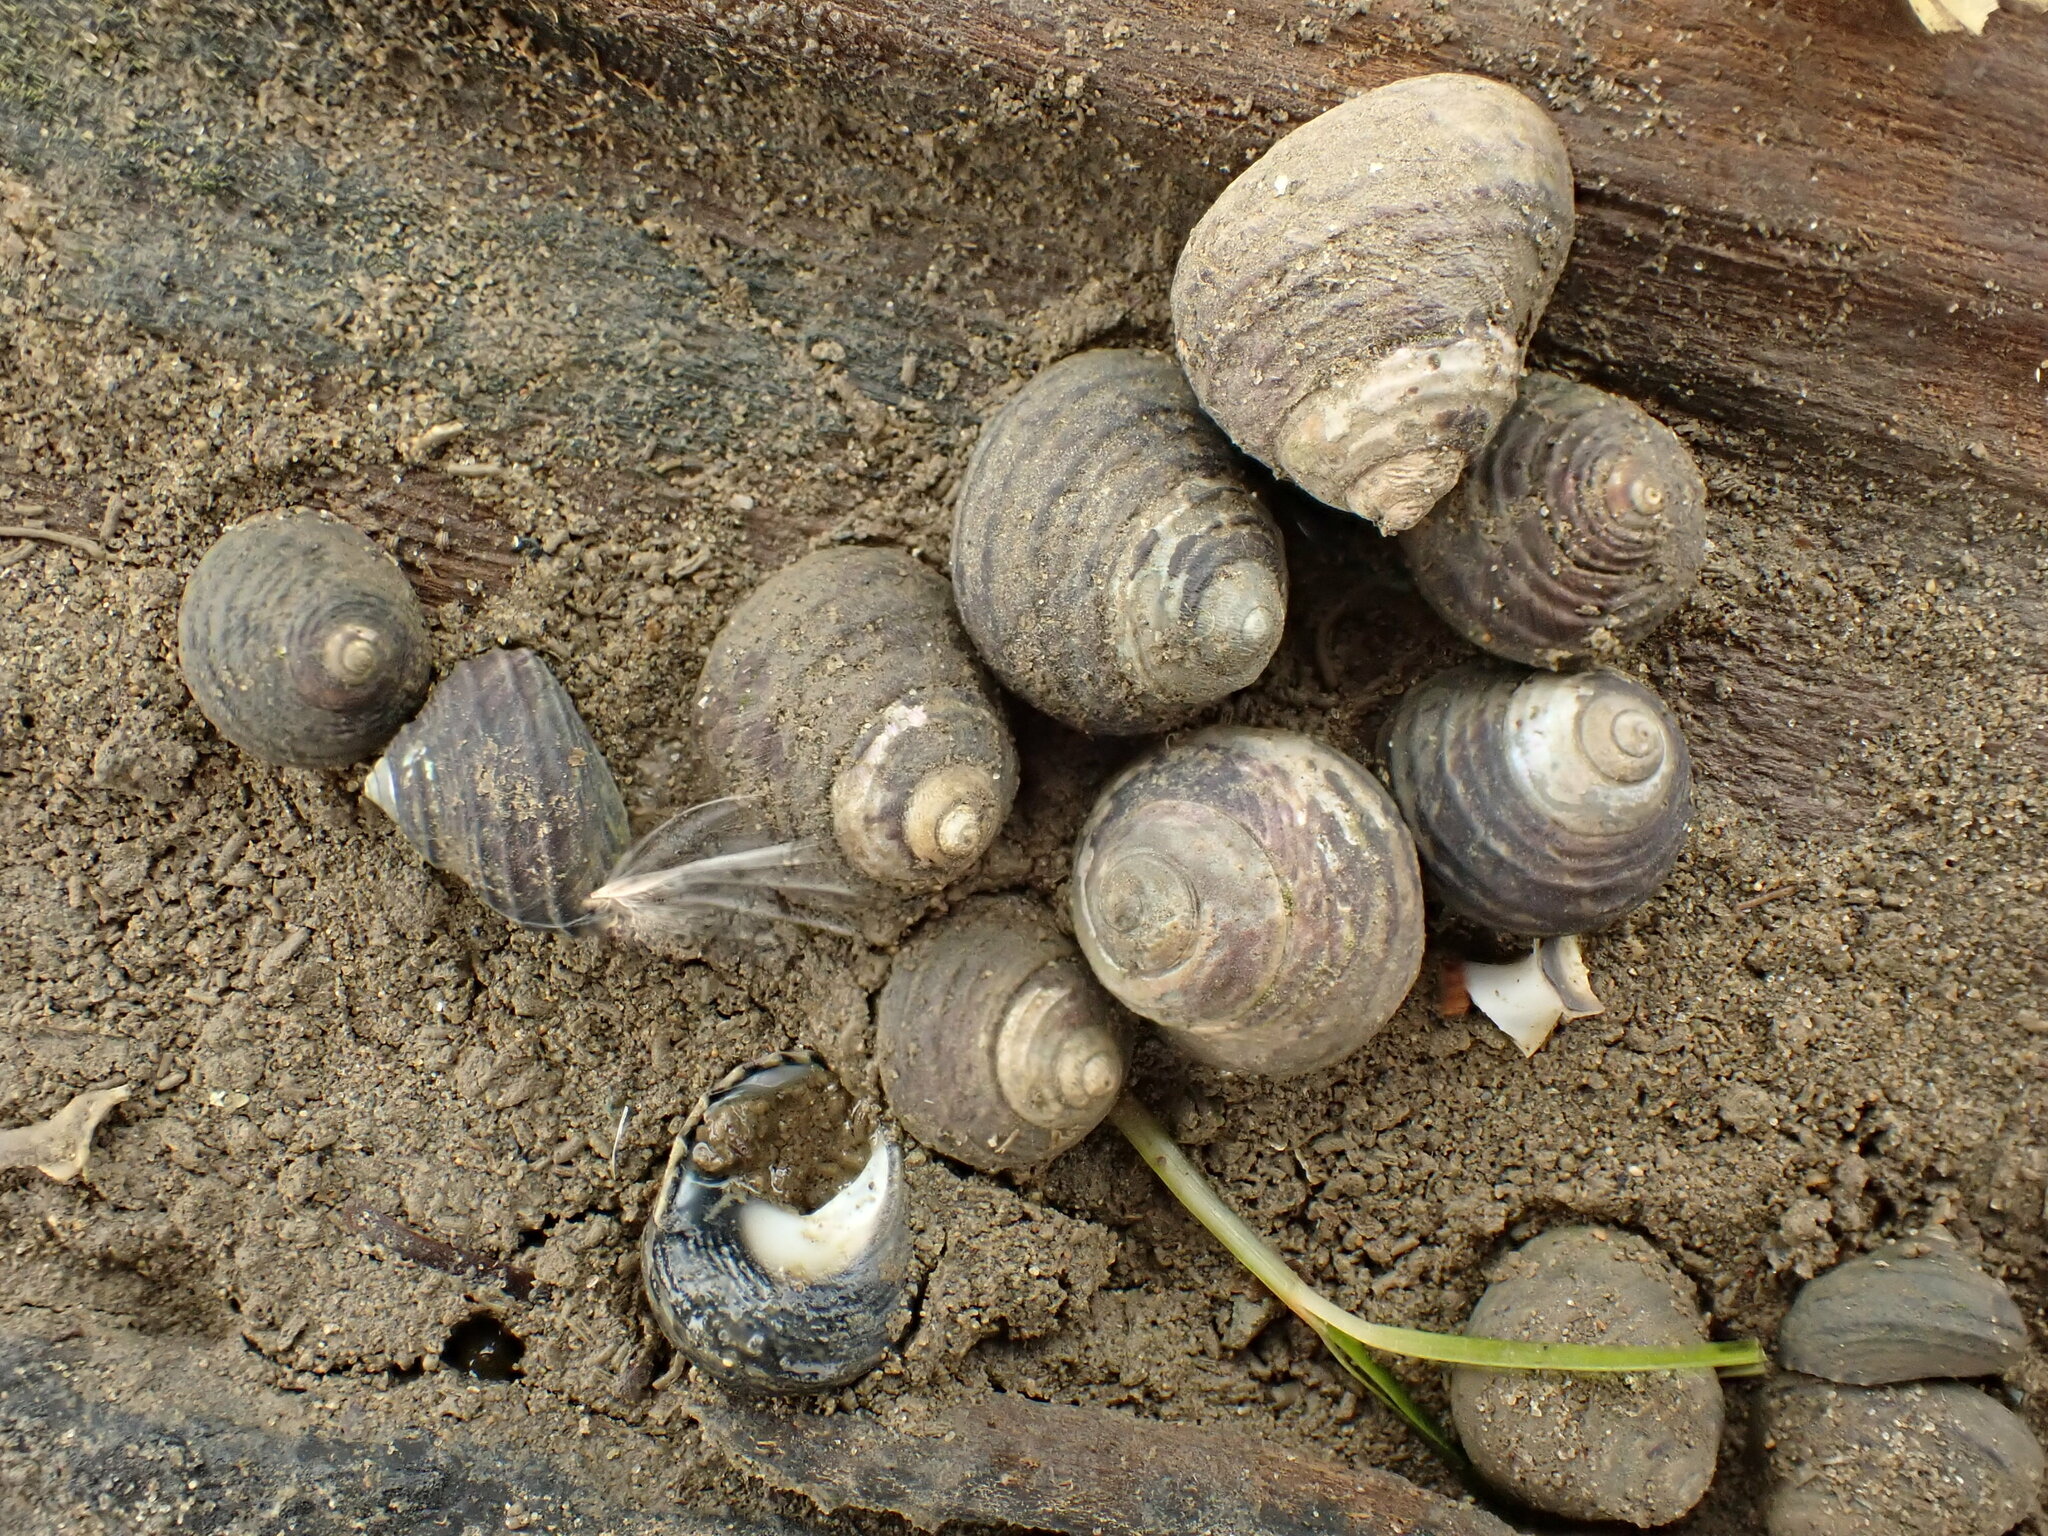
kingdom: Animalia
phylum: Mollusca
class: Gastropoda
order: Trochida
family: Trochidae
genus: Diloma
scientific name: Diloma aethiops
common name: Scorched monodont
